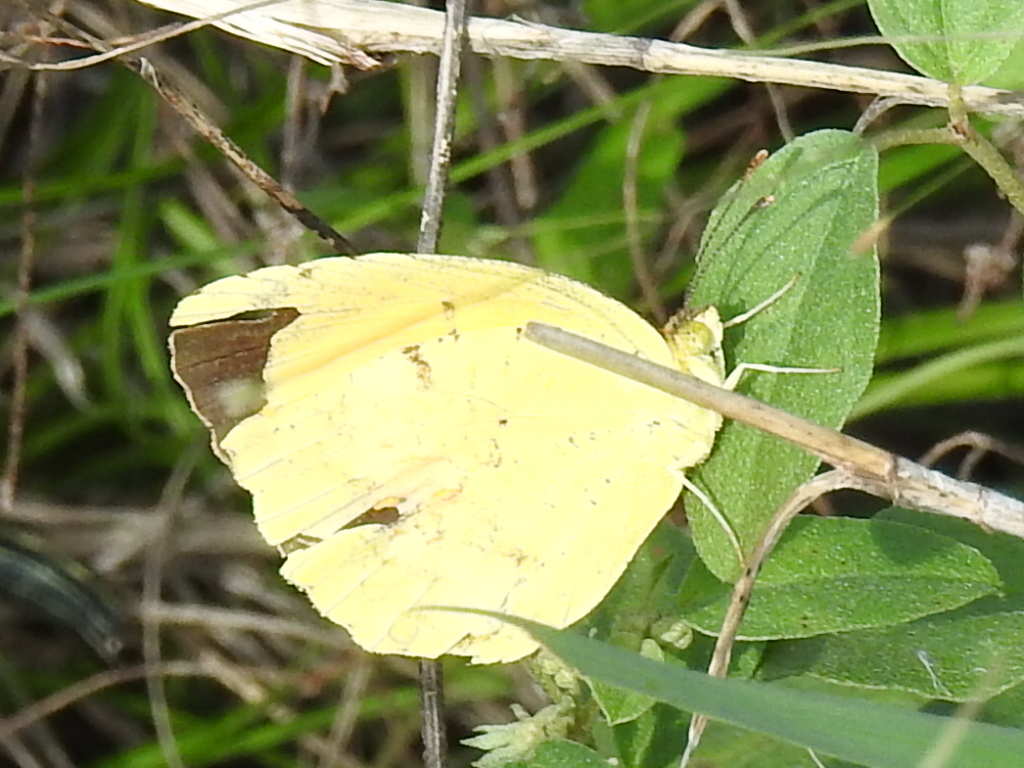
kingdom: Animalia
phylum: Arthropoda
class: Insecta
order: Lepidoptera
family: Pieridae
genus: Abaeis
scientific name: Abaeis nicippe
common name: Sleepy orange
